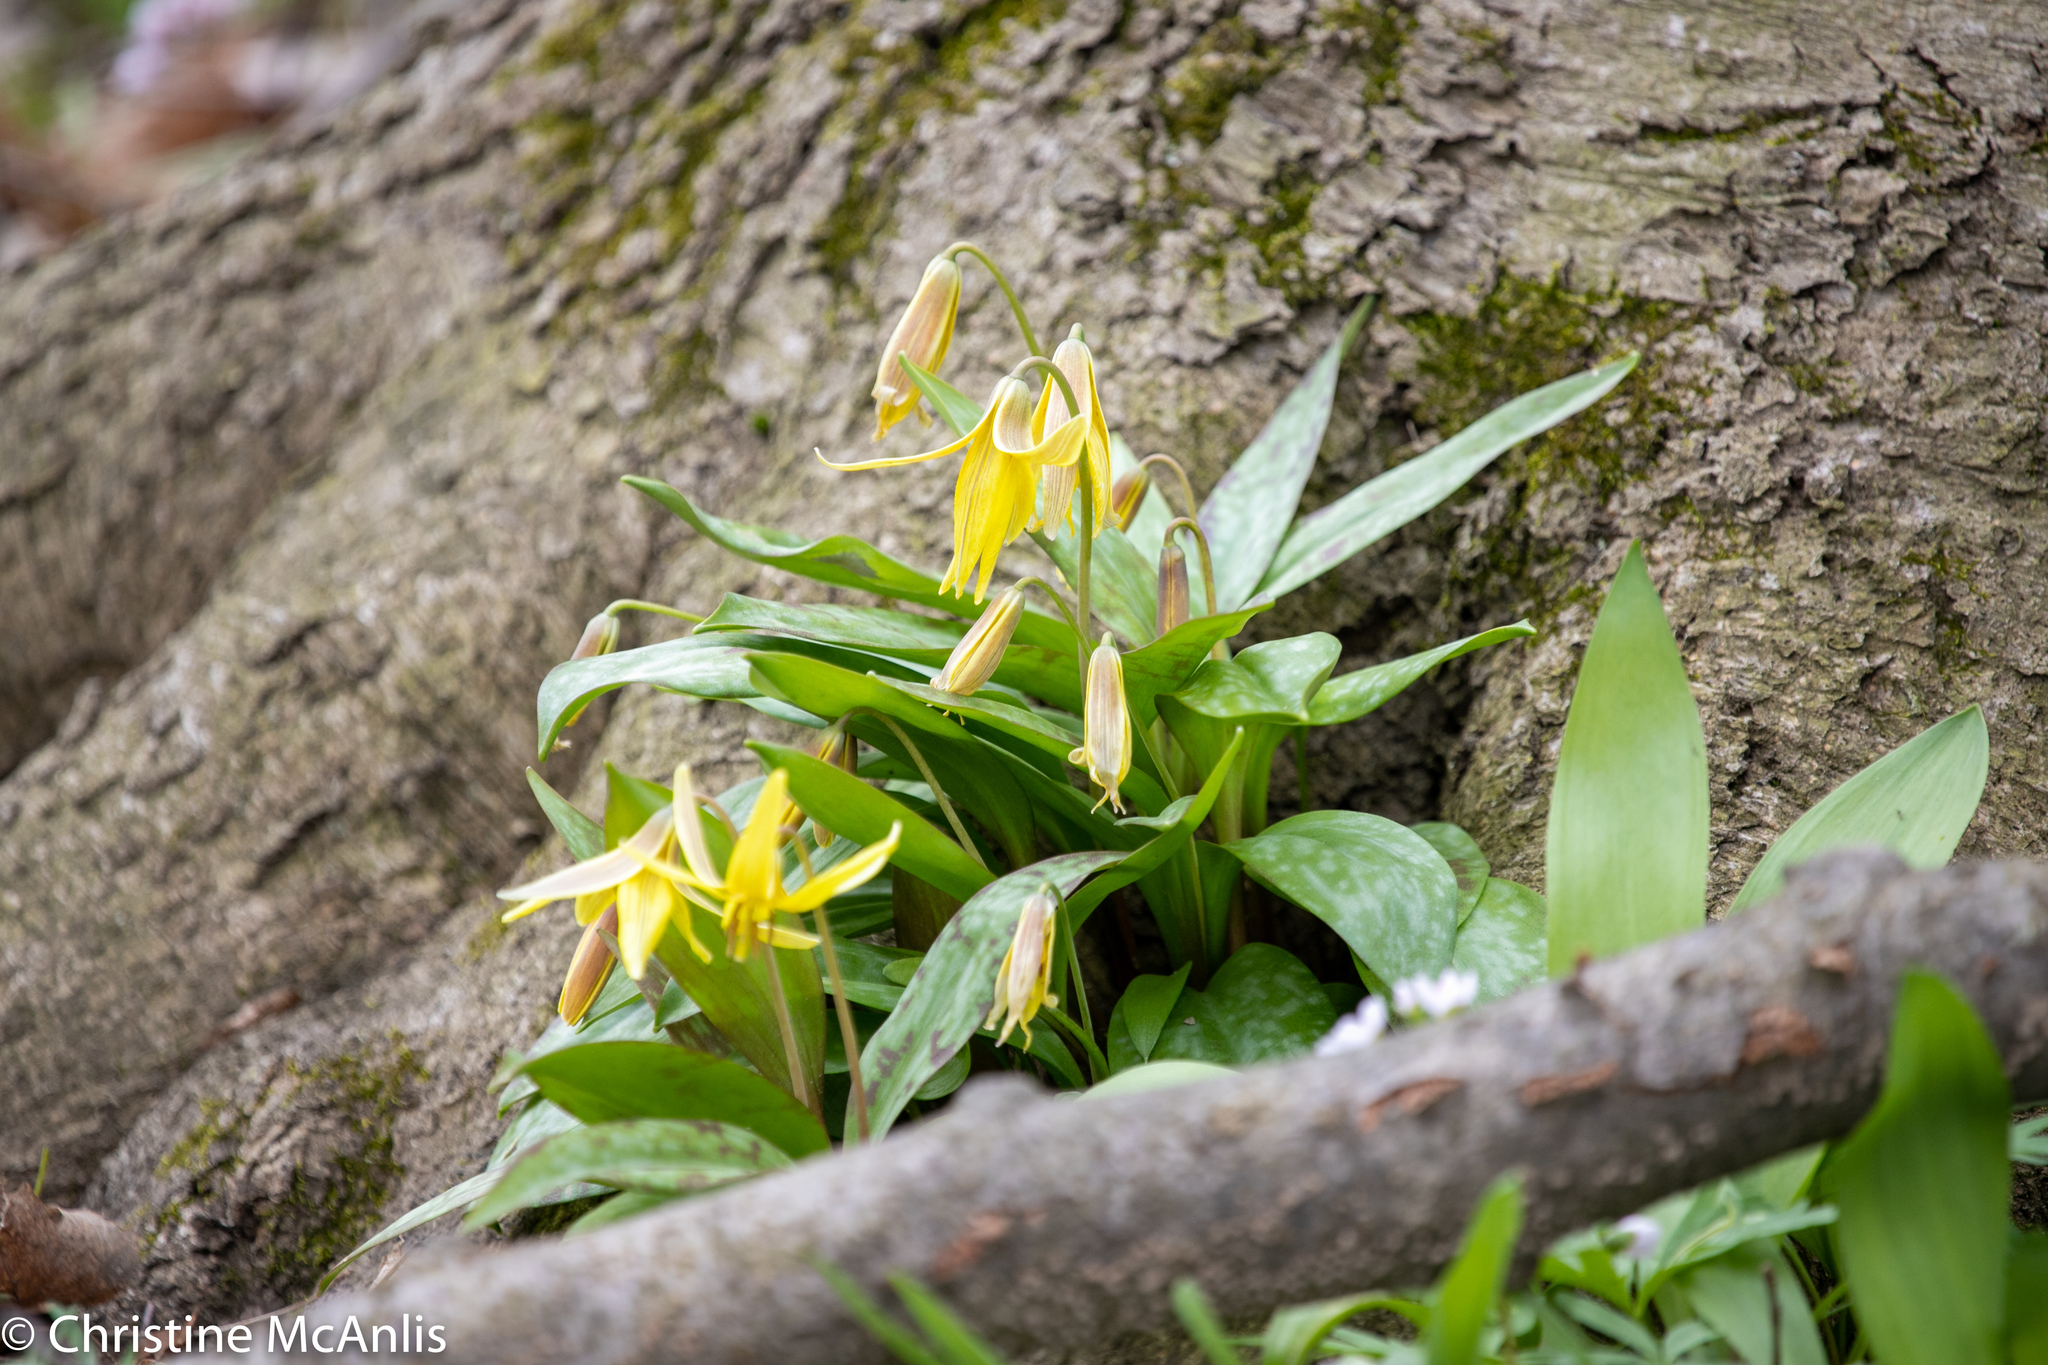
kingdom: Plantae
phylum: Tracheophyta
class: Liliopsida
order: Liliales
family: Liliaceae
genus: Erythronium
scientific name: Erythronium americanum
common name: Yellow adder's-tongue
